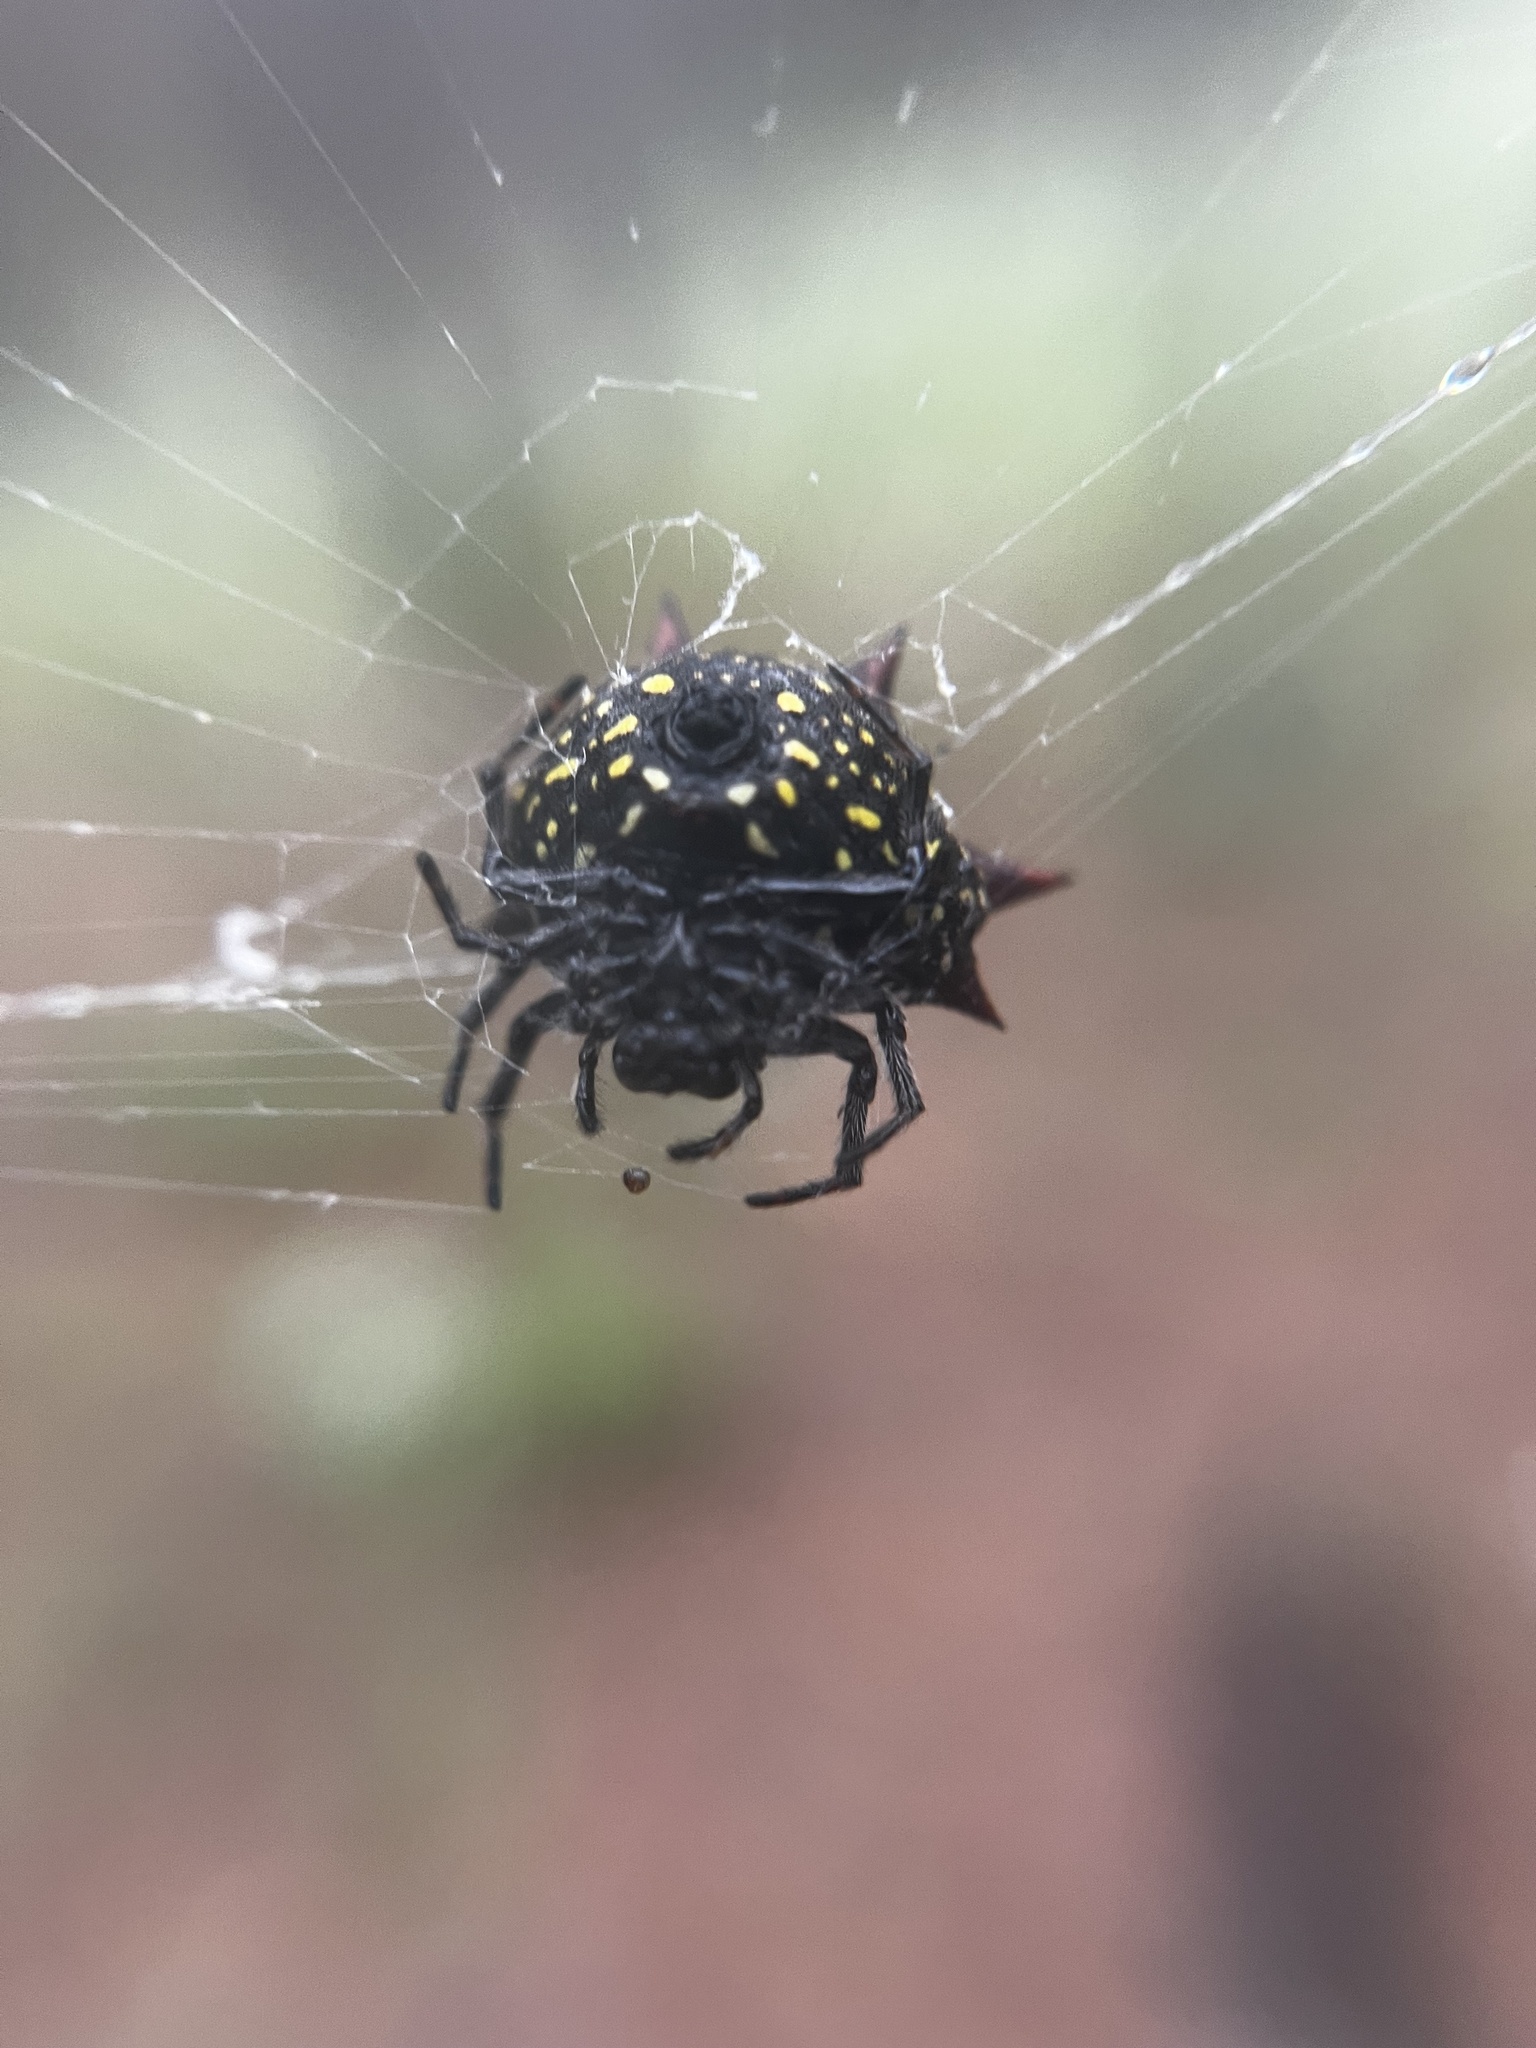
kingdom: Animalia
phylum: Arthropoda
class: Arachnida
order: Araneae
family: Araneidae
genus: Gasteracantha
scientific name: Gasteracantha cancriformis
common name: Orb weavers
